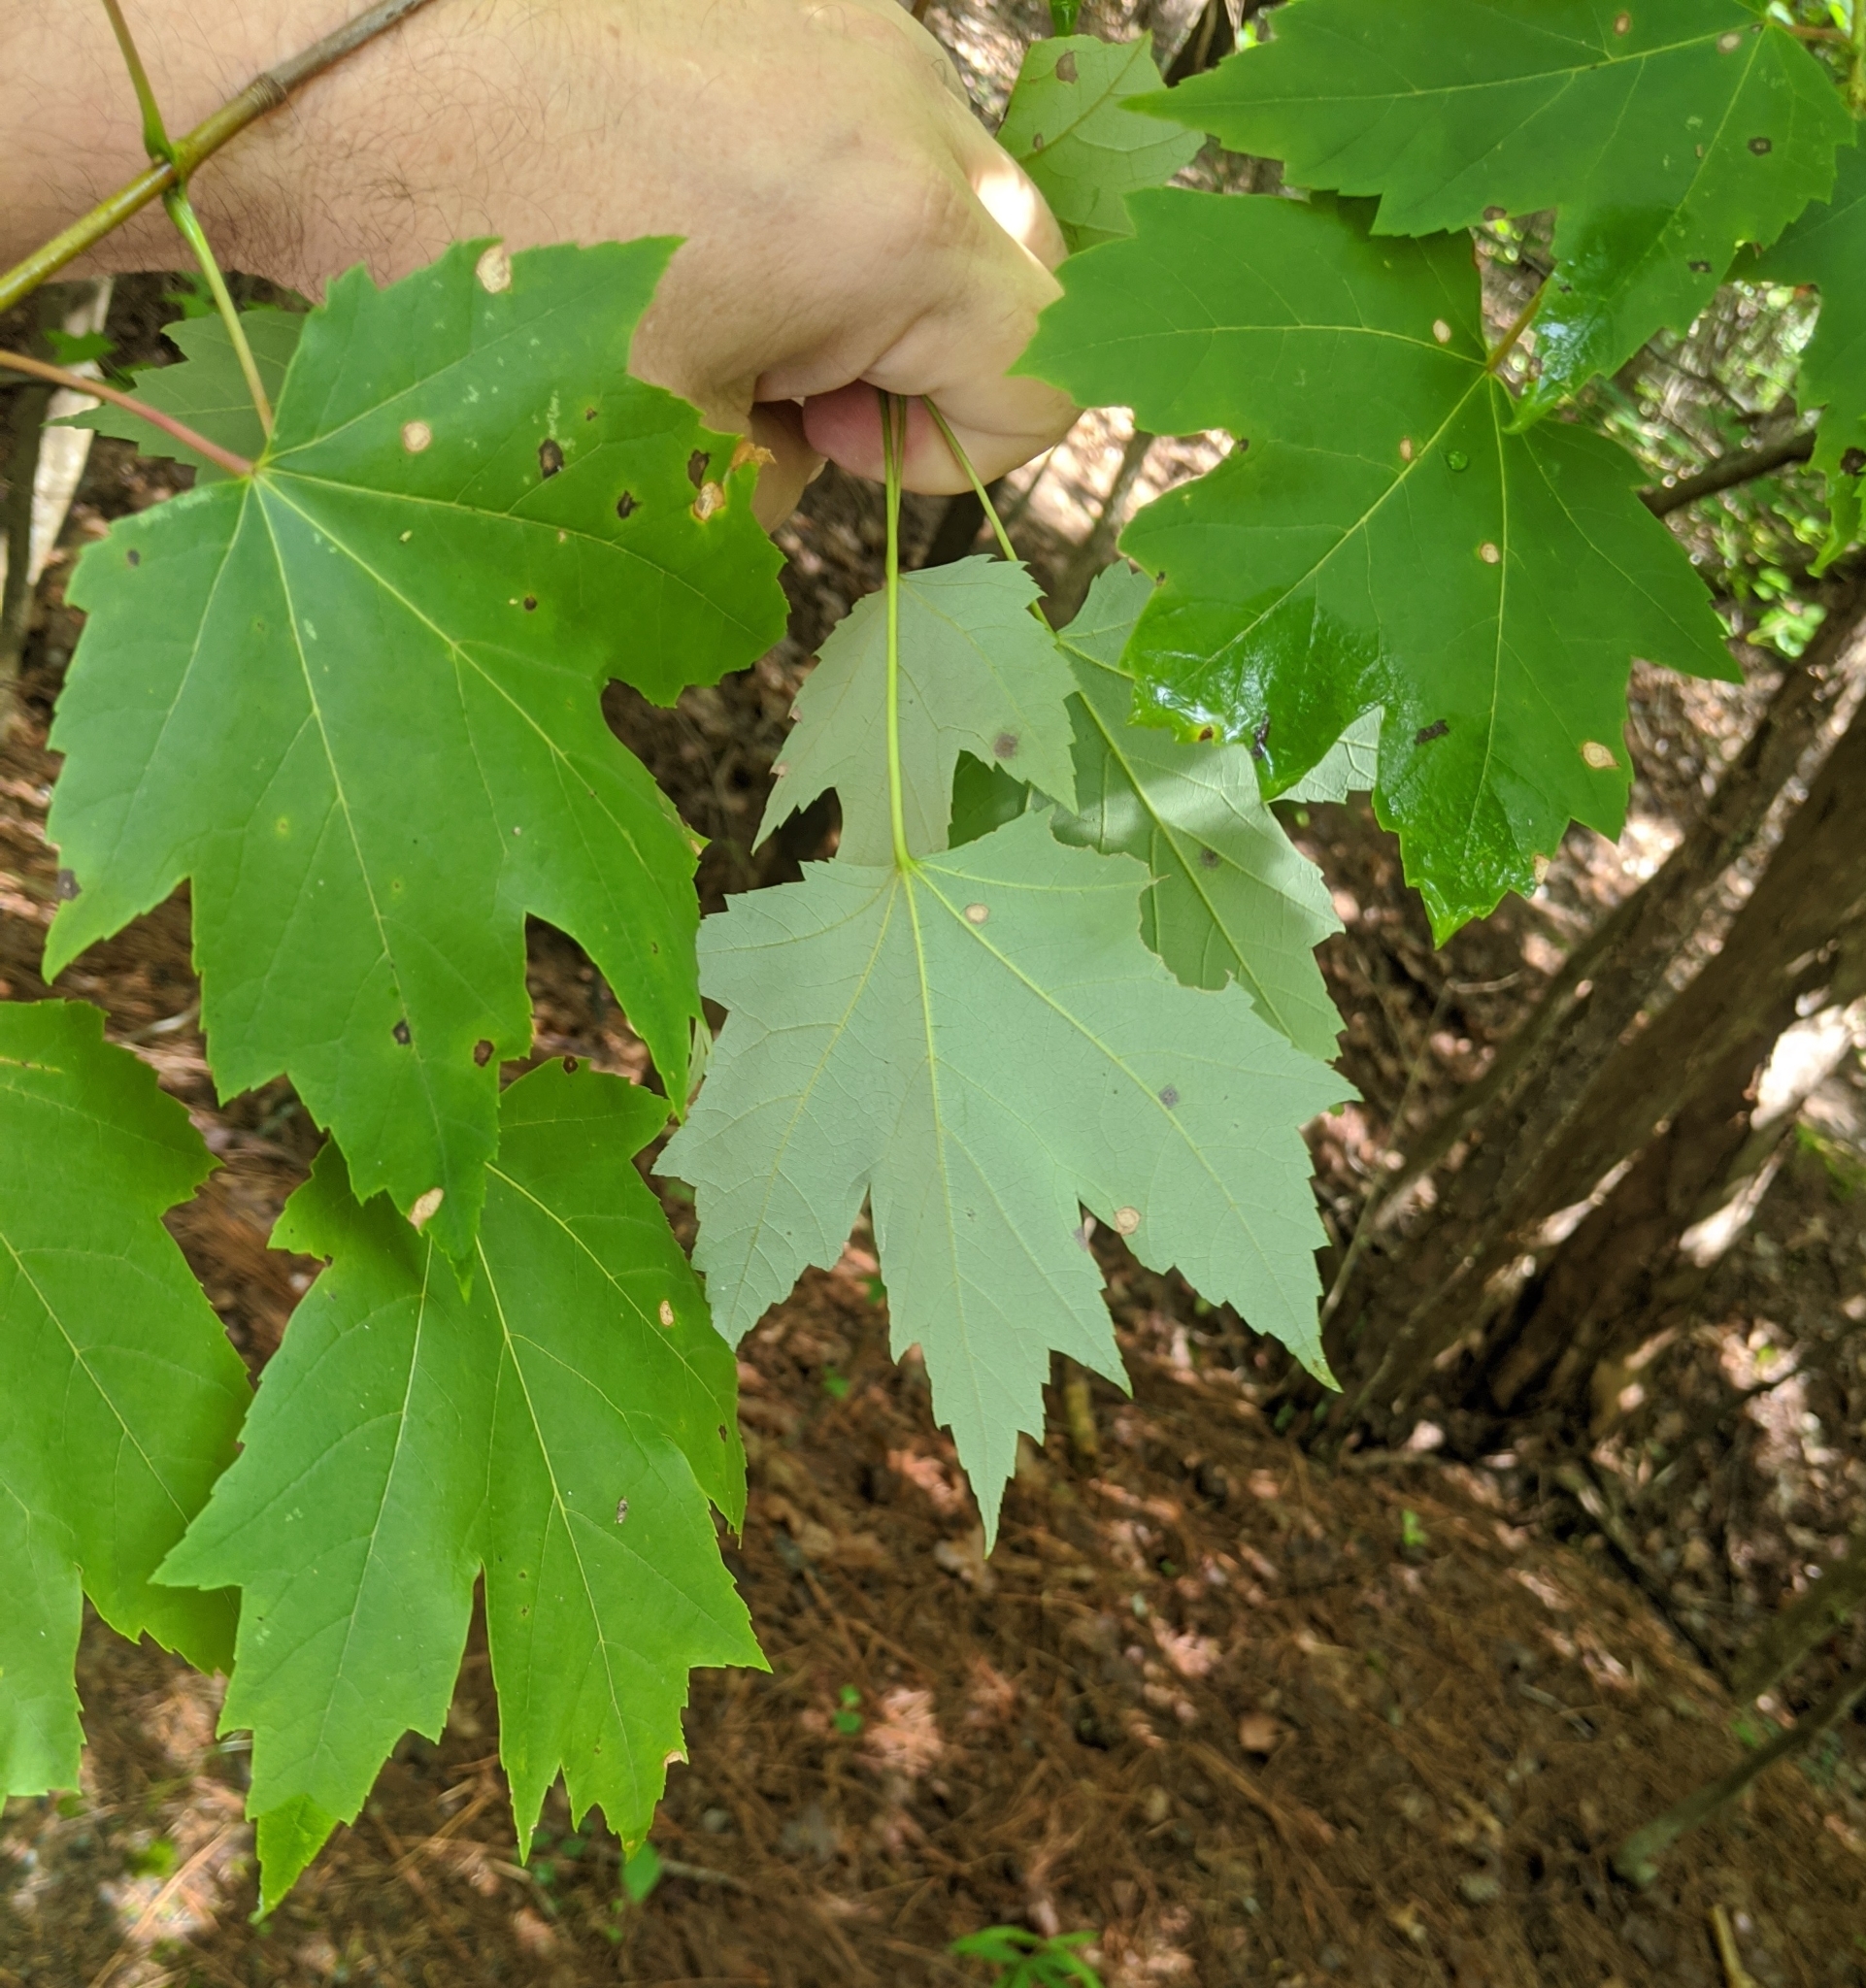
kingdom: Plantae
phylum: Tracheophyta
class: Magnoliopsida
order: Sapindales
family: Sapindaceae
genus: Acer
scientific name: Acer rubrum
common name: Red maple
